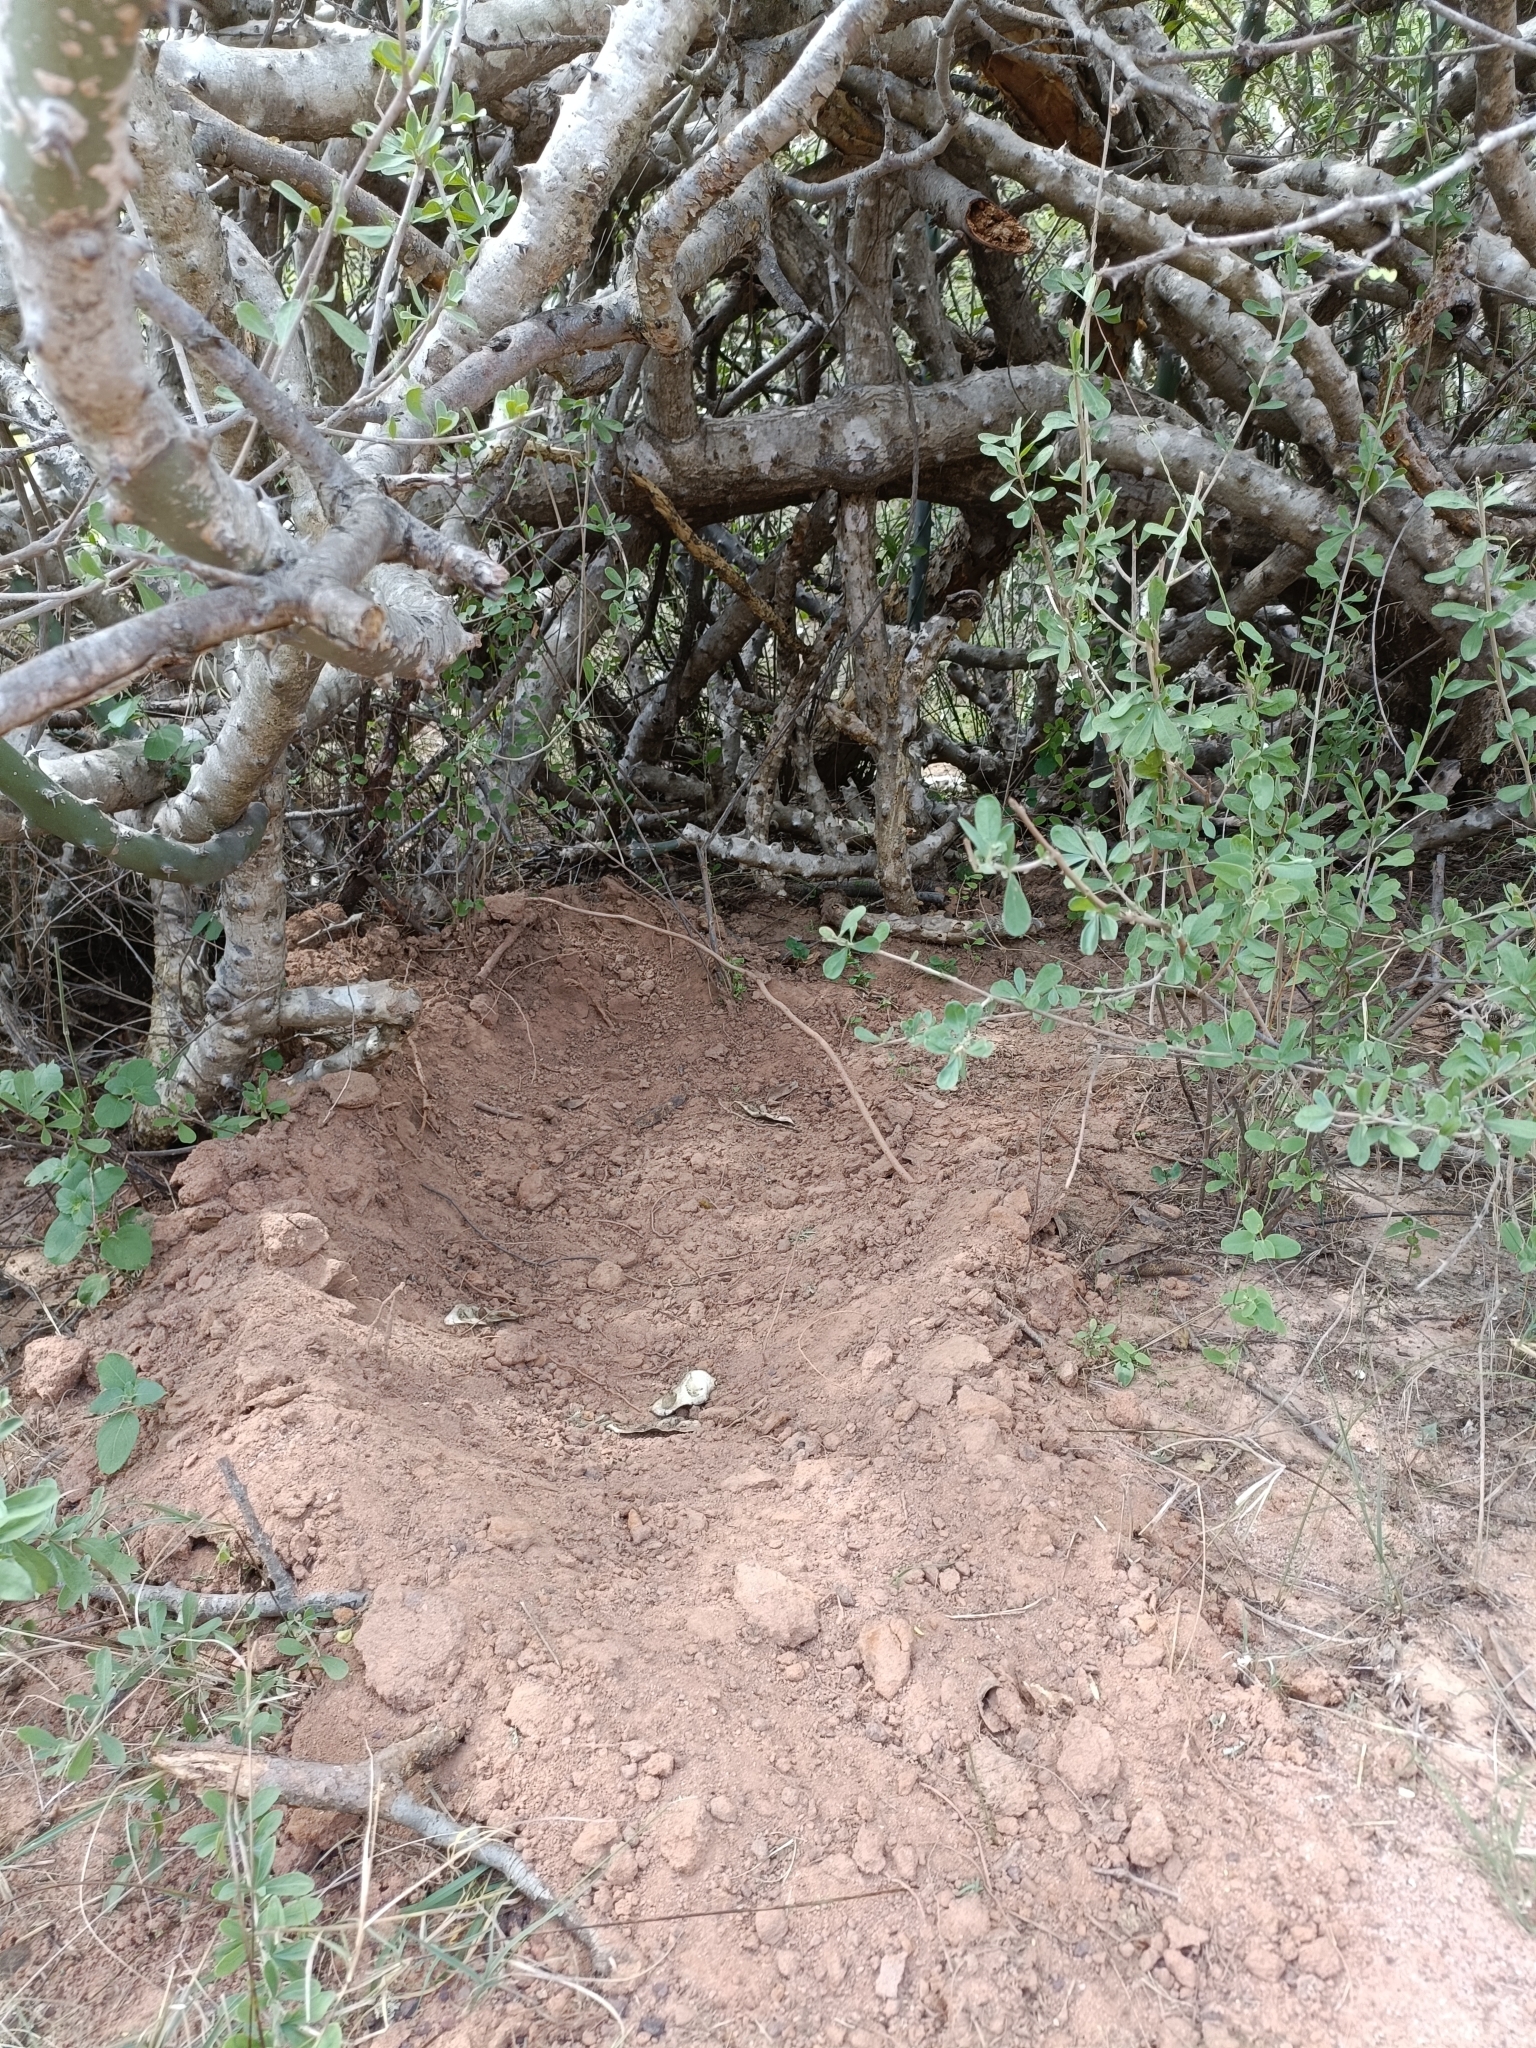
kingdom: Animalia
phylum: Chordata
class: Mammalia
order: Artiodactyla
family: Suidae
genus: Sus
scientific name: Sus scrofa
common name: Wild boar
